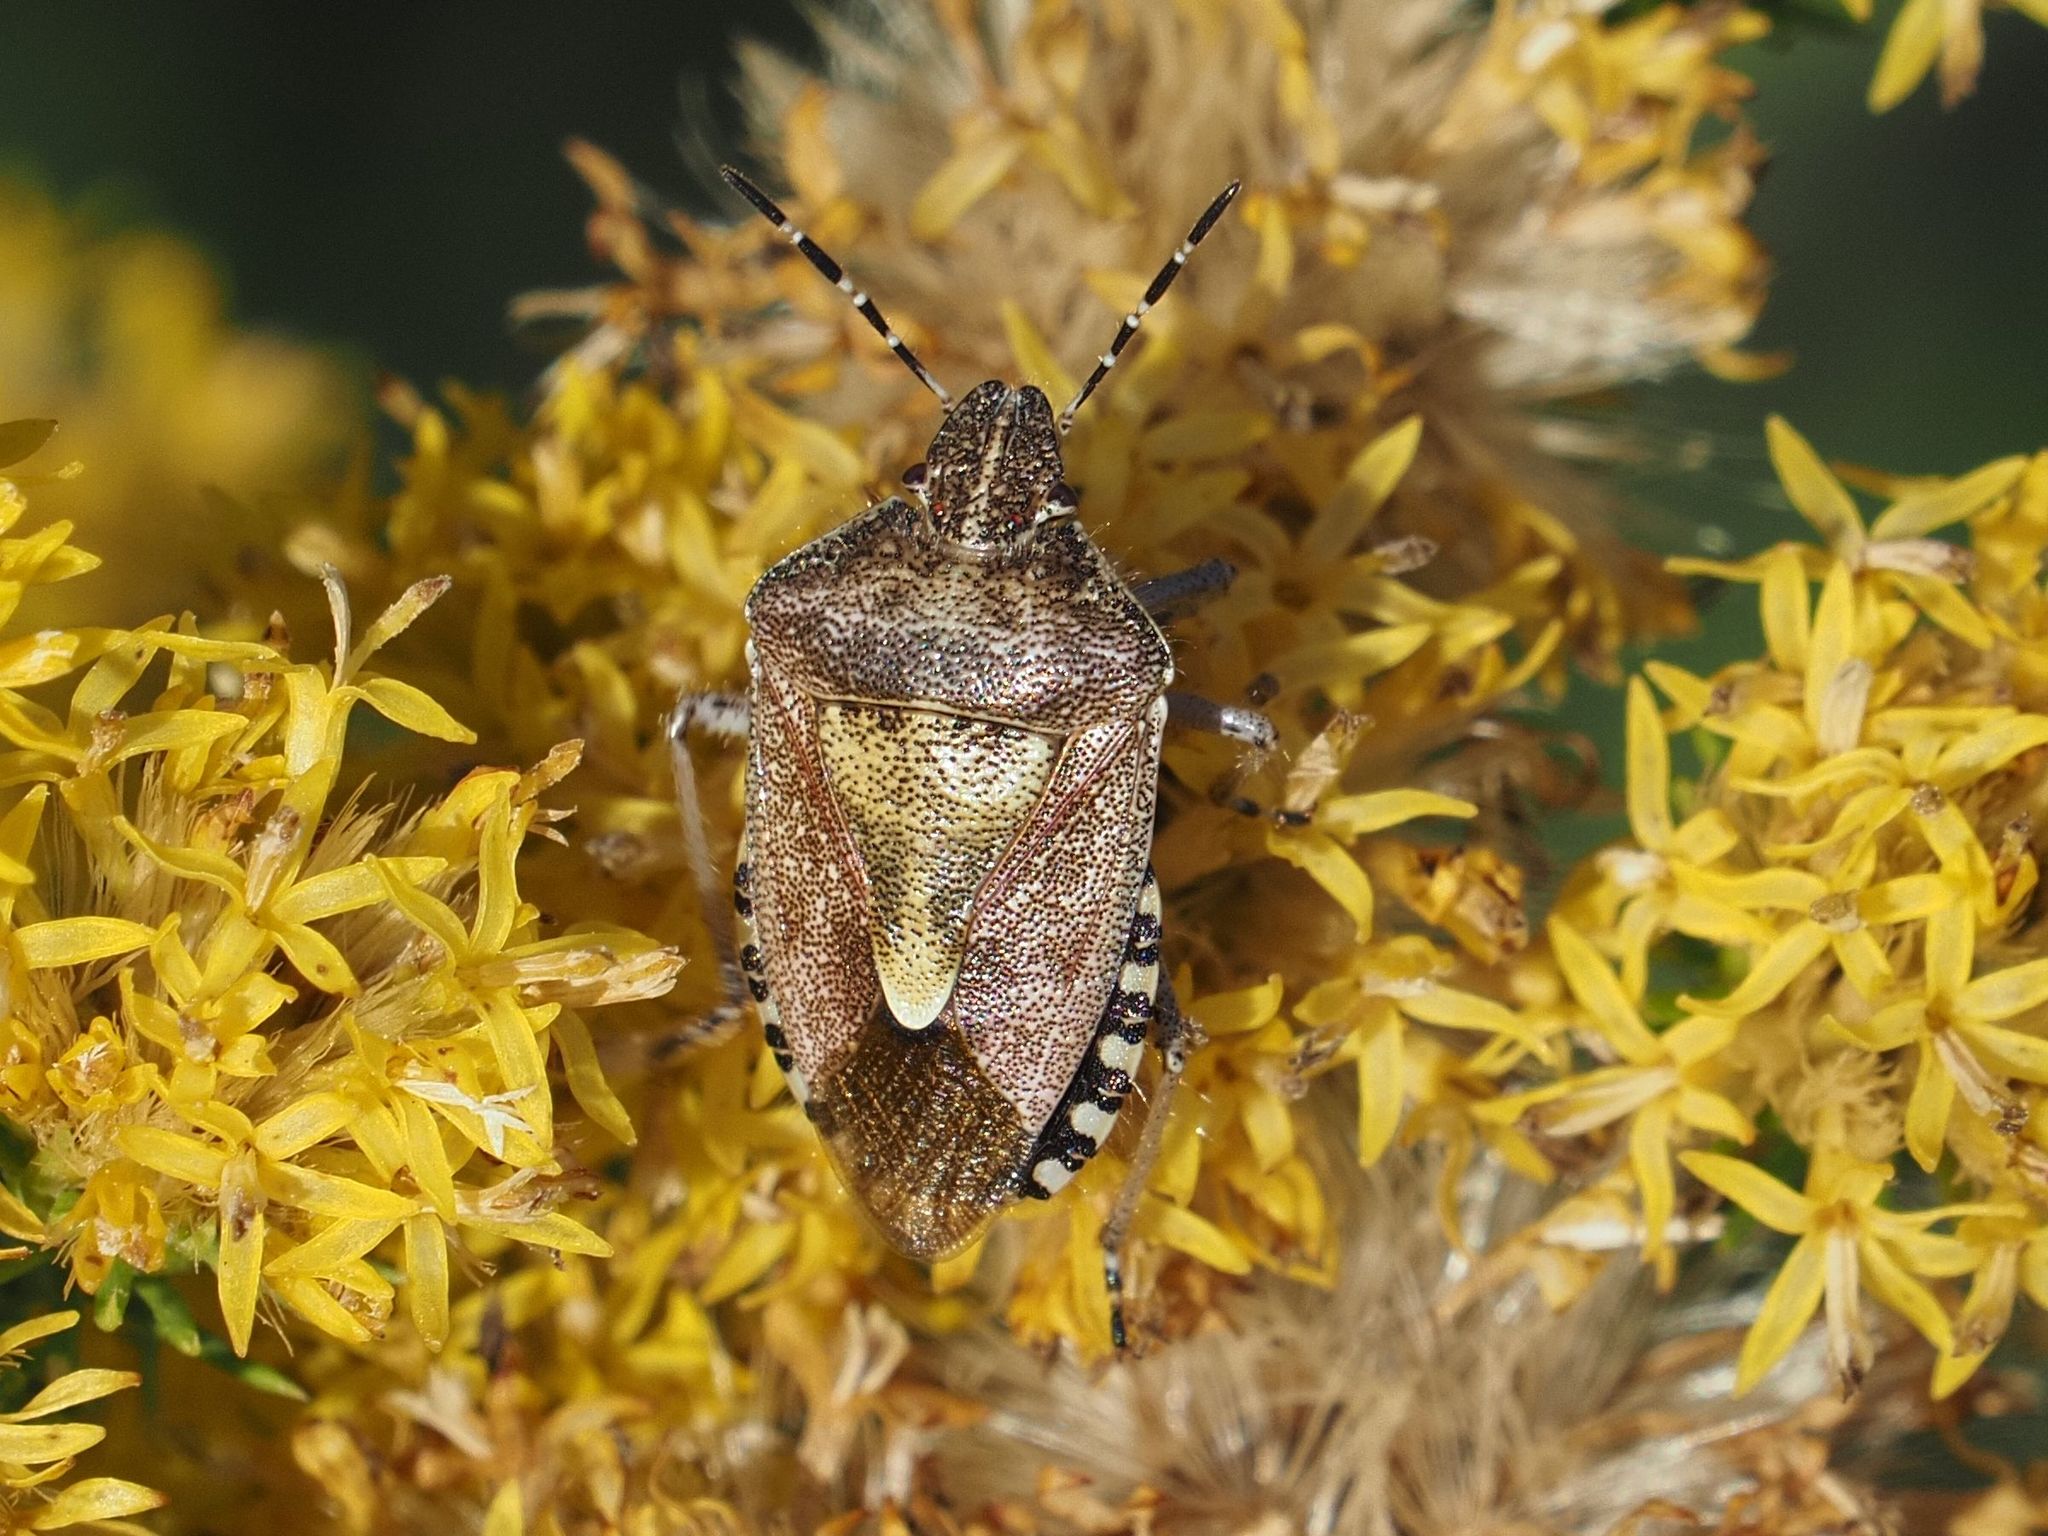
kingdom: Animalia
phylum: Arthropoda
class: Insecta
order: Hemiptera
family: Pentatomidae
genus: Dolycoris
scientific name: Dolycoris baccarum
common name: Sloe bug
